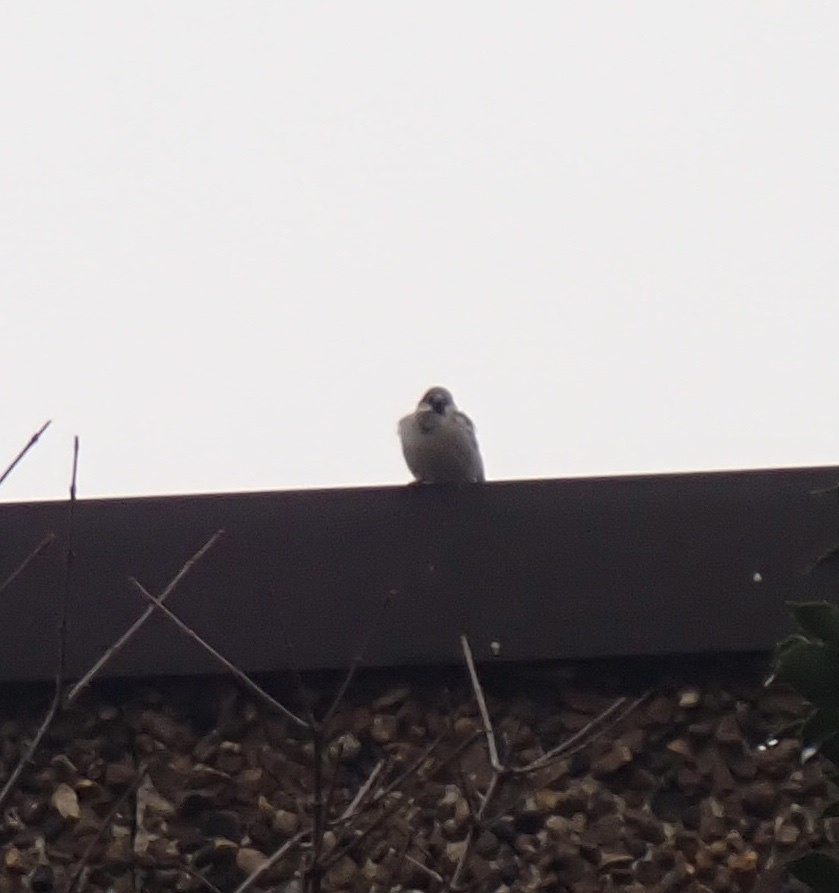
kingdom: Animalia
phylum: Chordata
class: Aves
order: Passeriformes
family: Passeridae
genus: Passer
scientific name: Passer domesticus
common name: House sparrow
